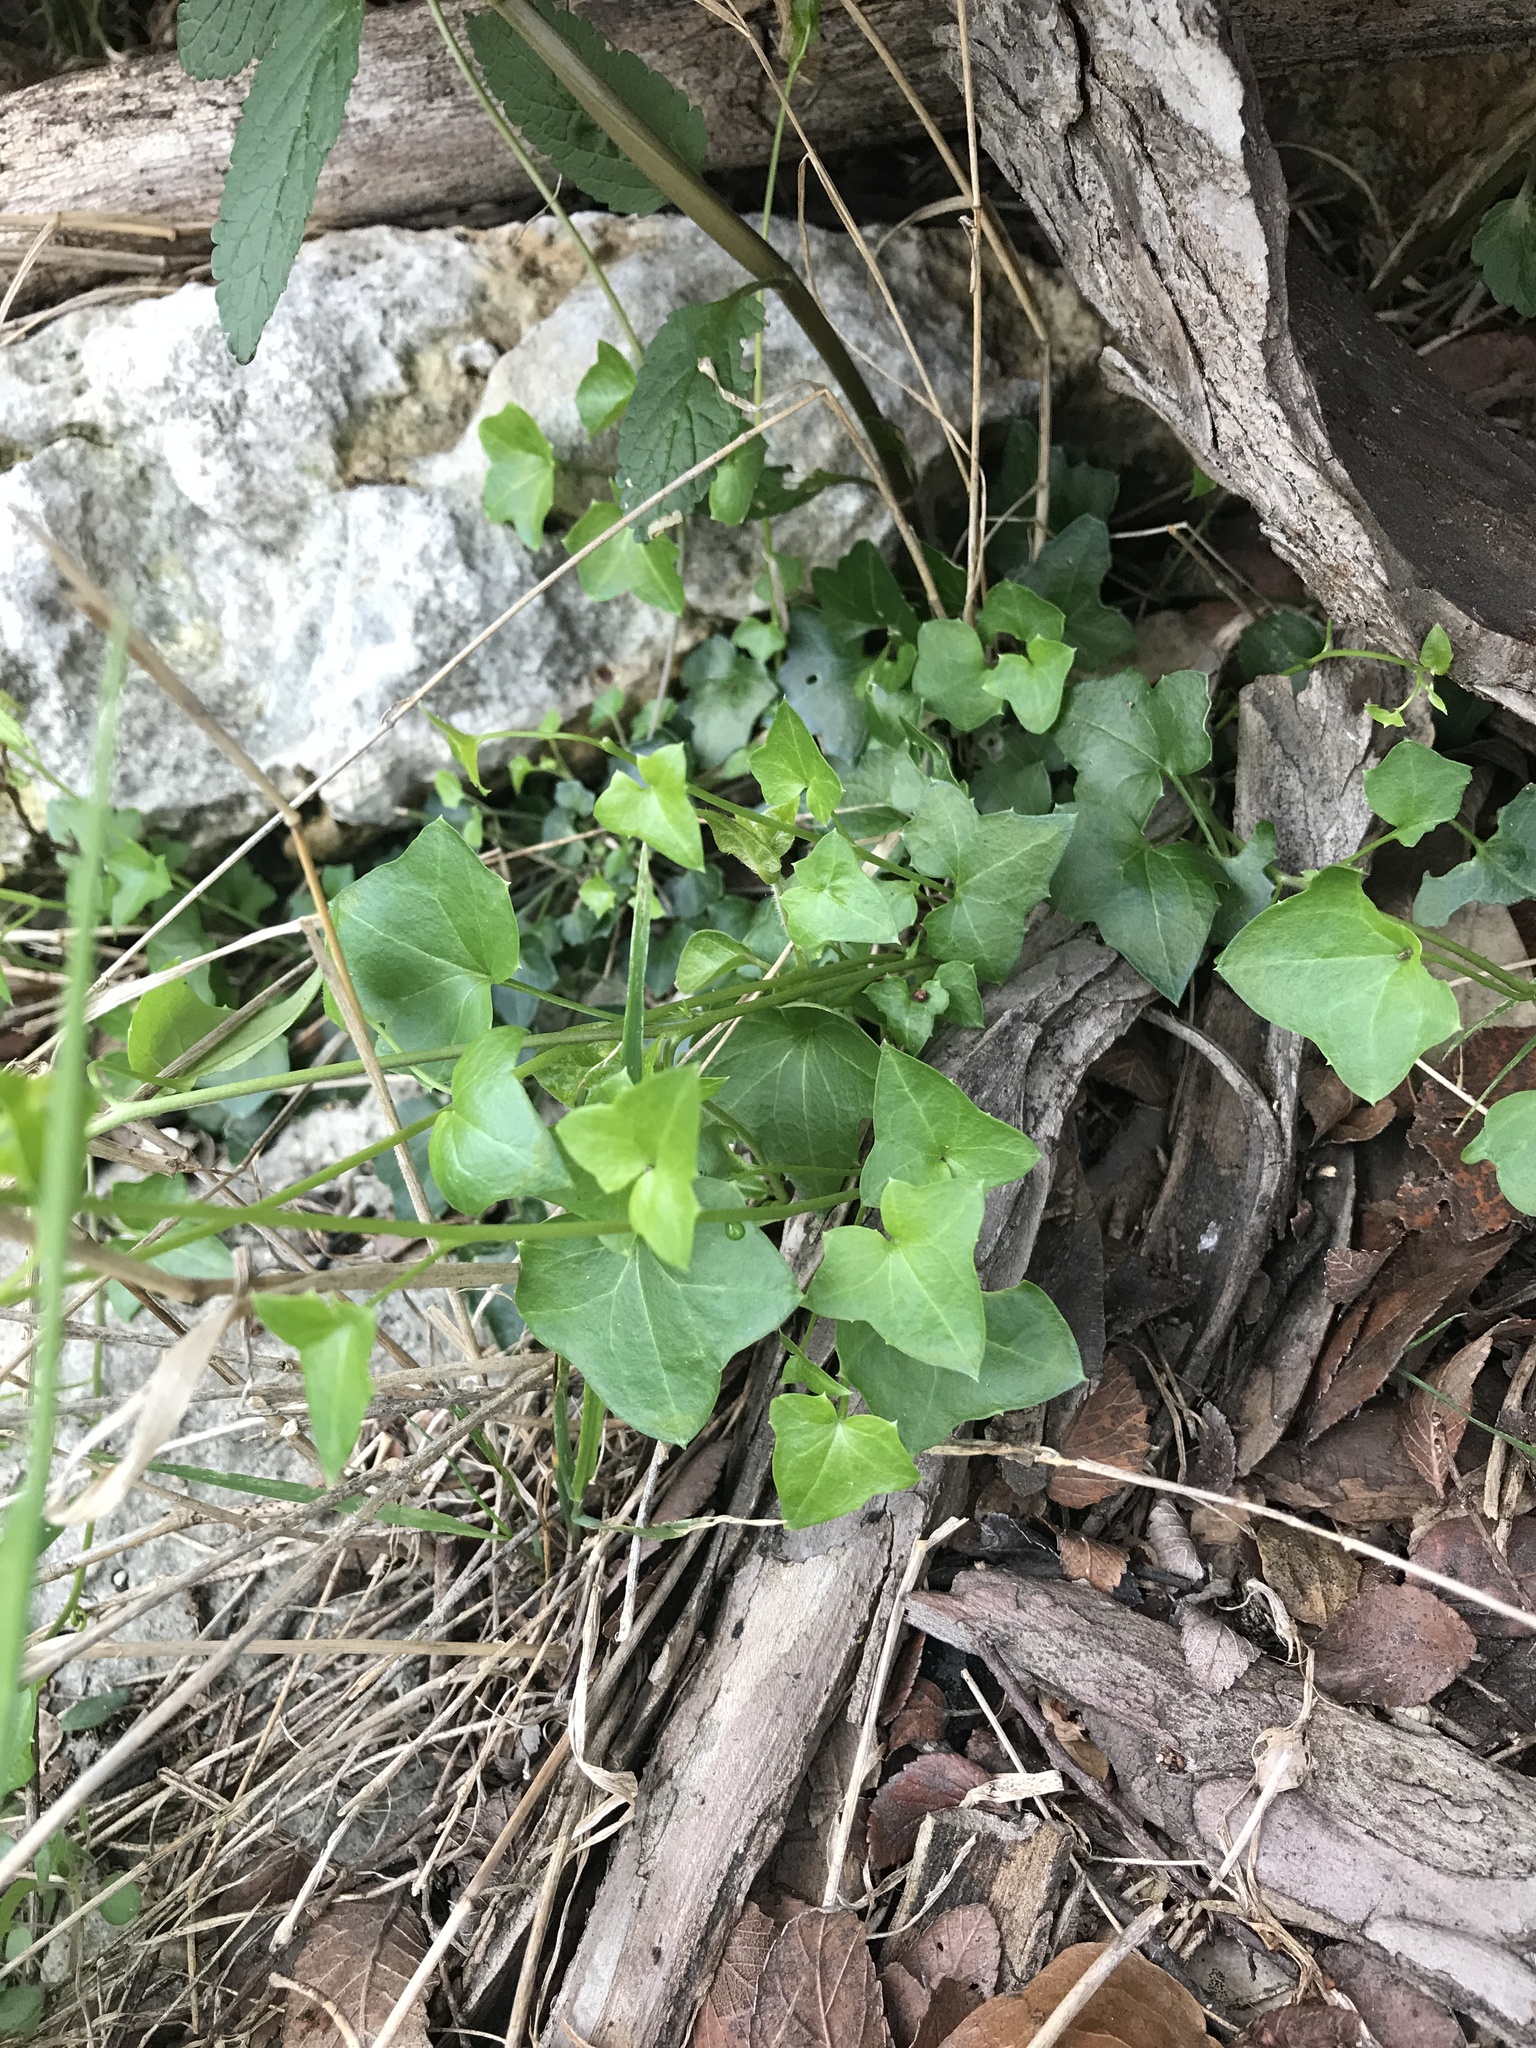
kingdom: Plantae
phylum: Tracheophyta
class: Magnoliopsida
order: Lamiales
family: Plantaginaceae
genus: Maurandella
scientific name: Maurandella antirrhiniflora
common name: Violet twining-snapdragon
